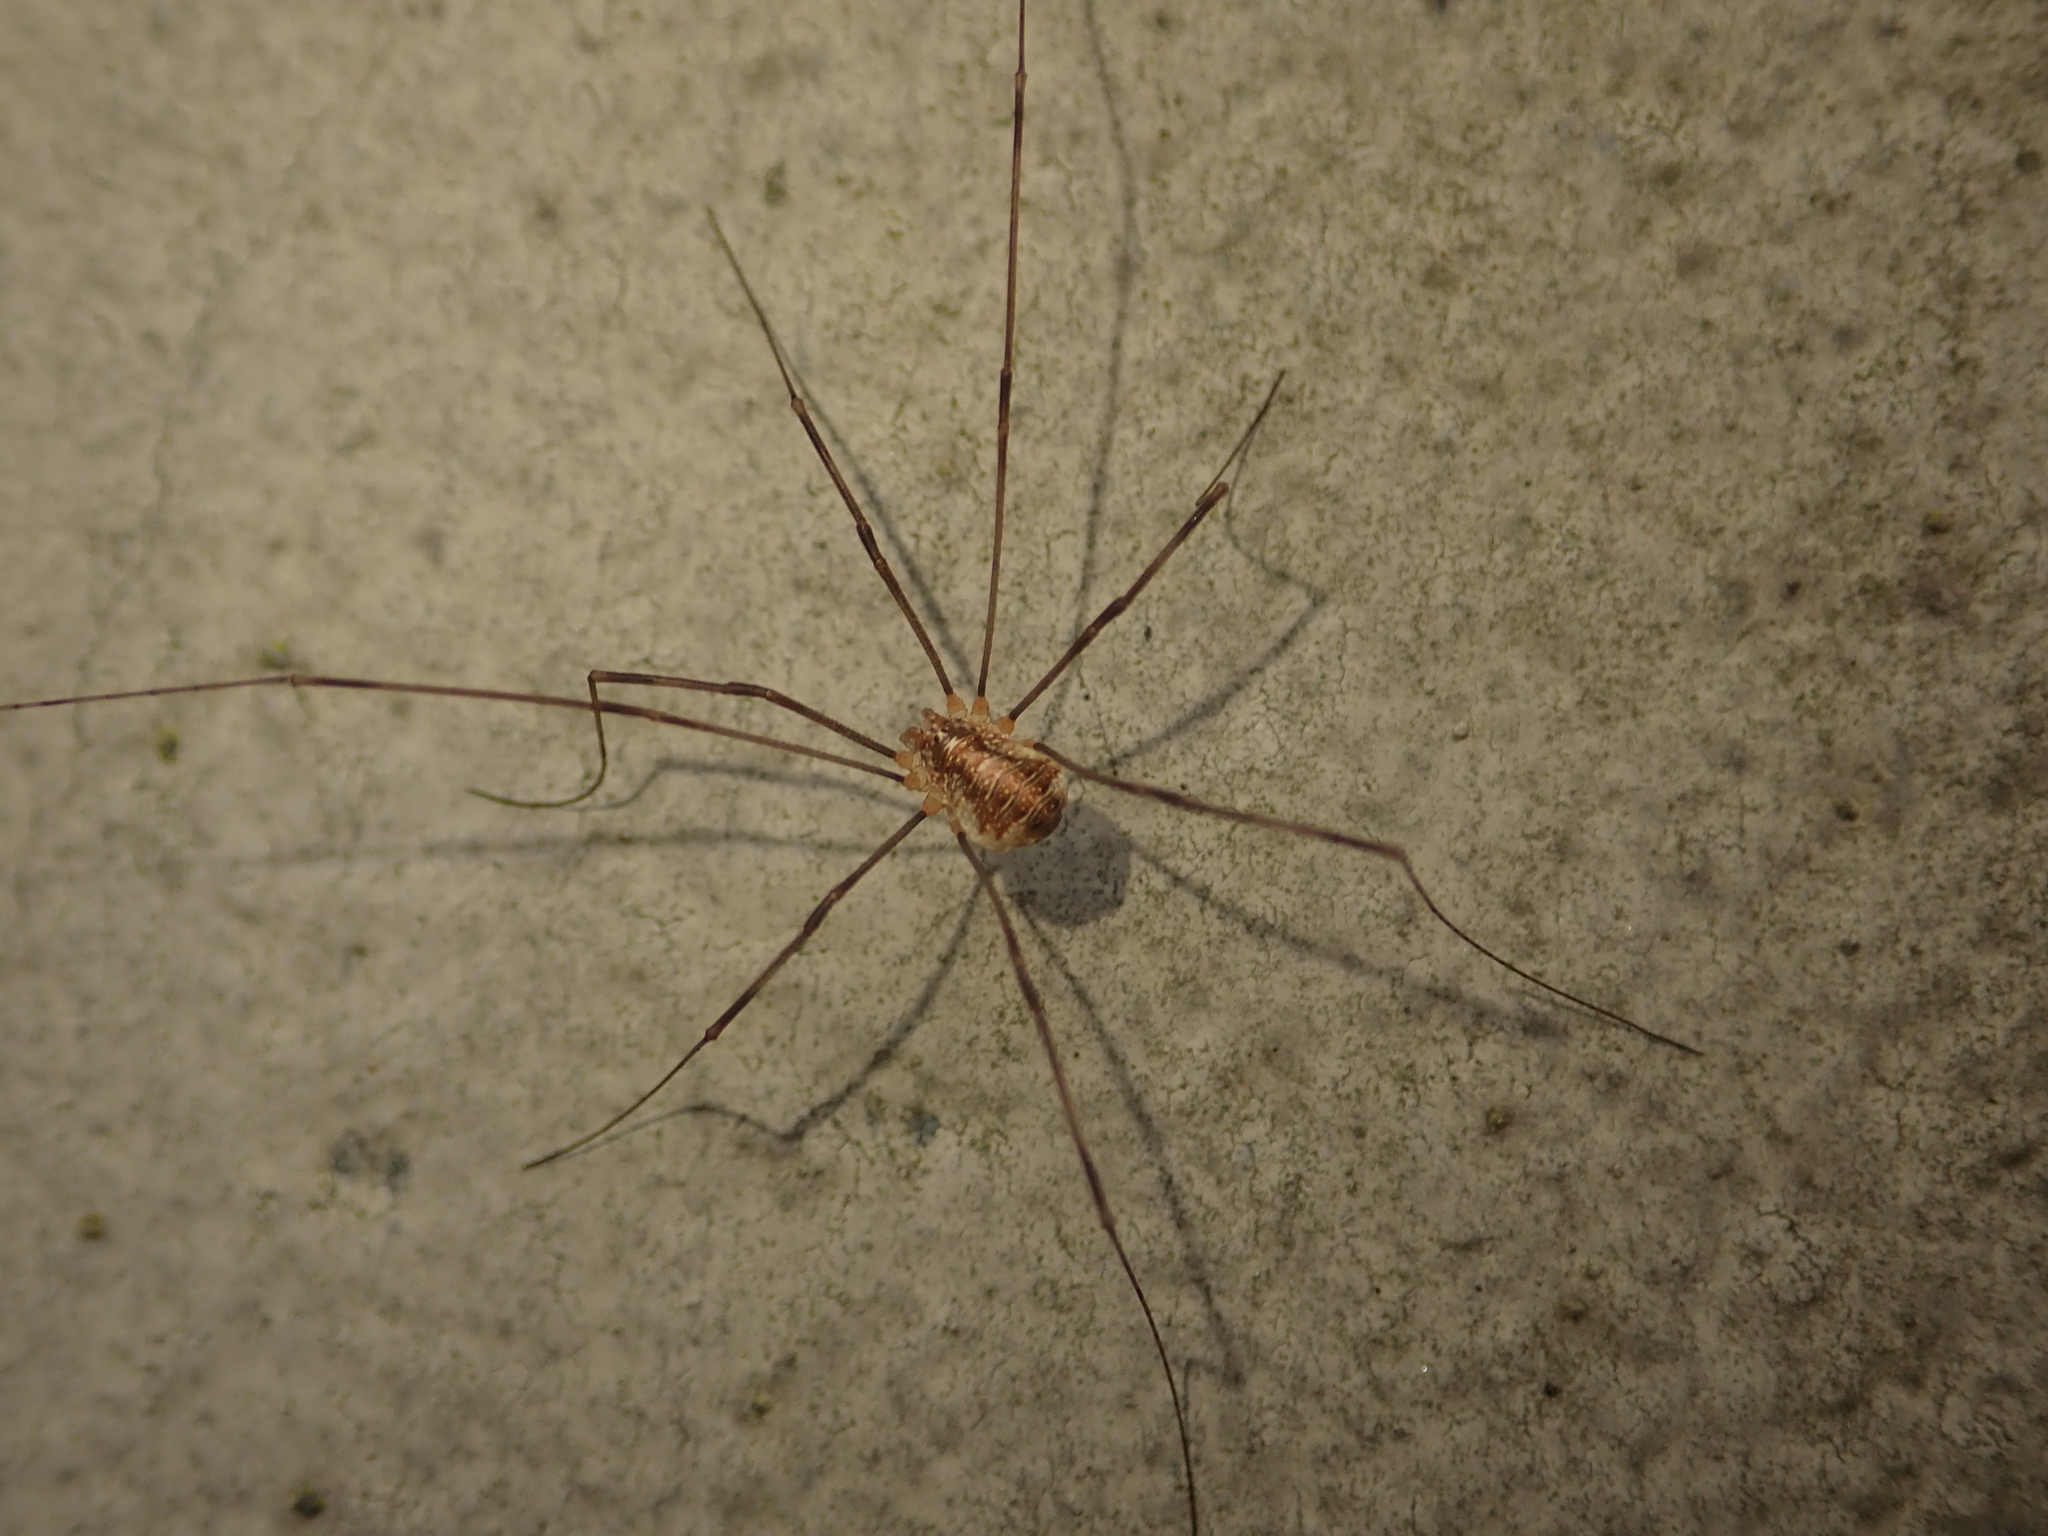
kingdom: Animalia
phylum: Arthropoda
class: Arachnida
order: Opiliones
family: Phalangiidae
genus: Opilio
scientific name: Opilio canestrinii
